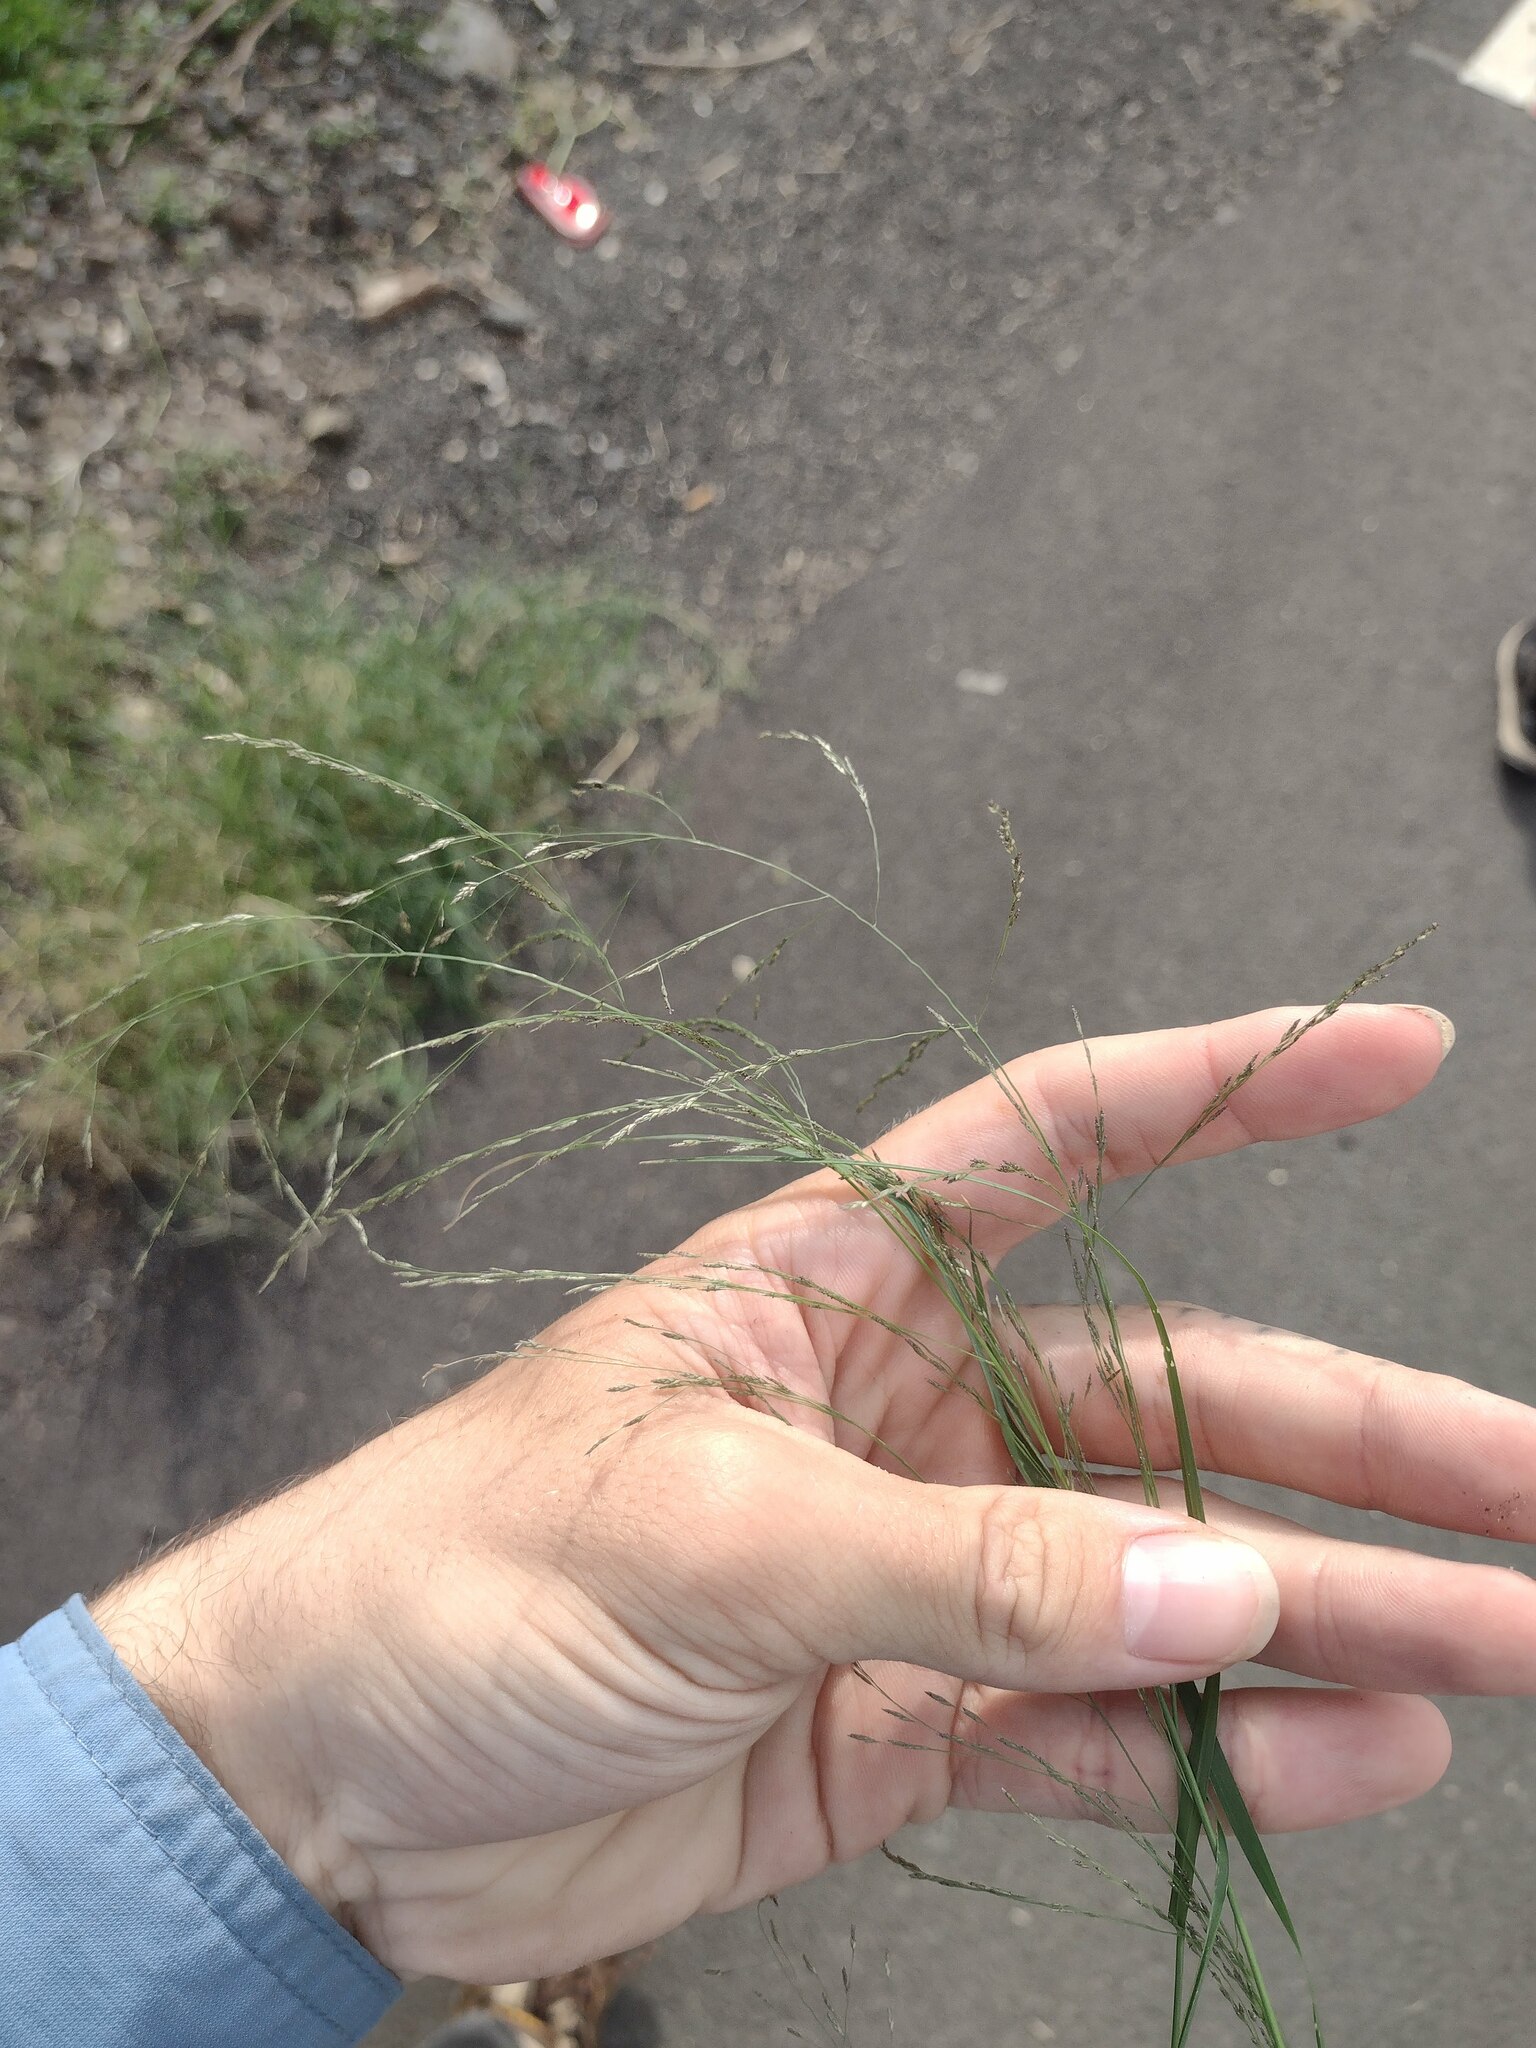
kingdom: Plantae
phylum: Tracheophyta
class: Liliopsida
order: Poales
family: Poaceae
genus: Eragrostis
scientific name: Eragrostis pilosa
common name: Indian lovegrass
